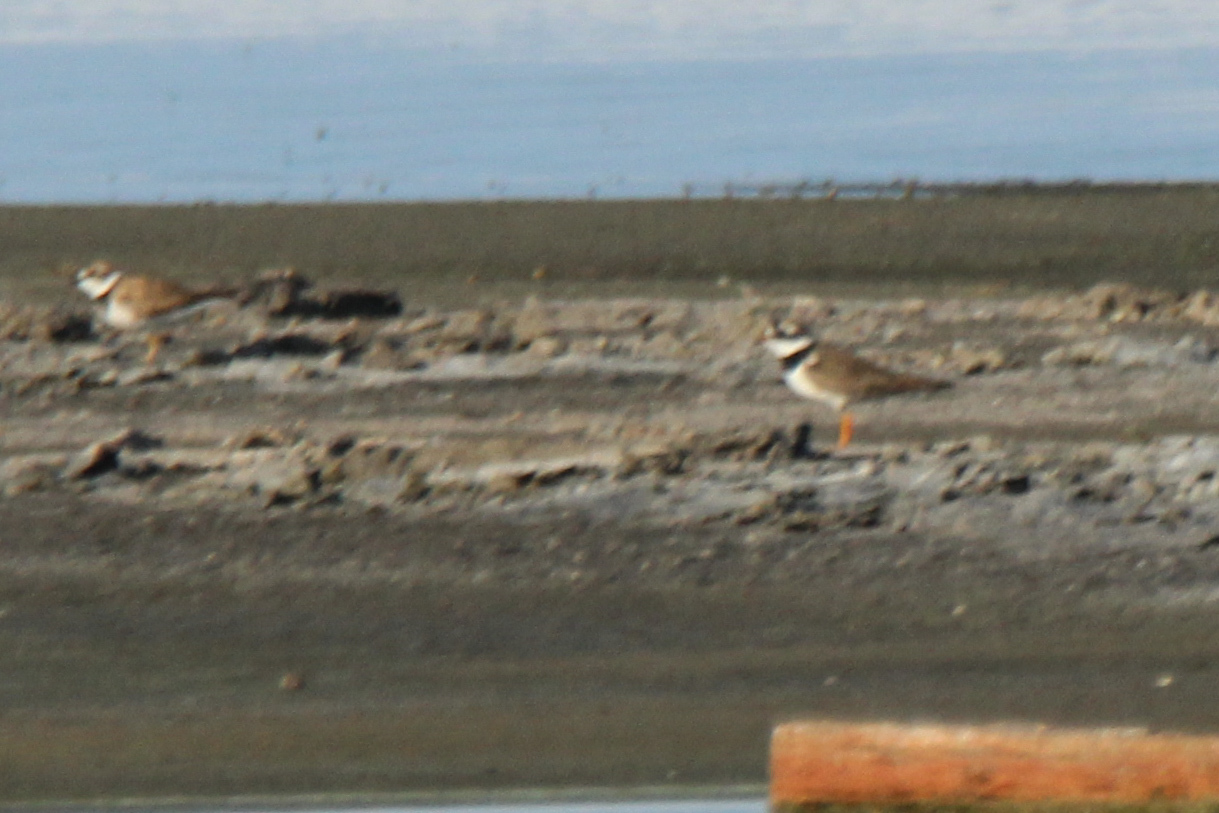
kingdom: Animalia
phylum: Chordata
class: Aves
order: Charadriiformes
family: Charadriidae
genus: Charadrius
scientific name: Charadrius hiaticula
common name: Common ringed plover
